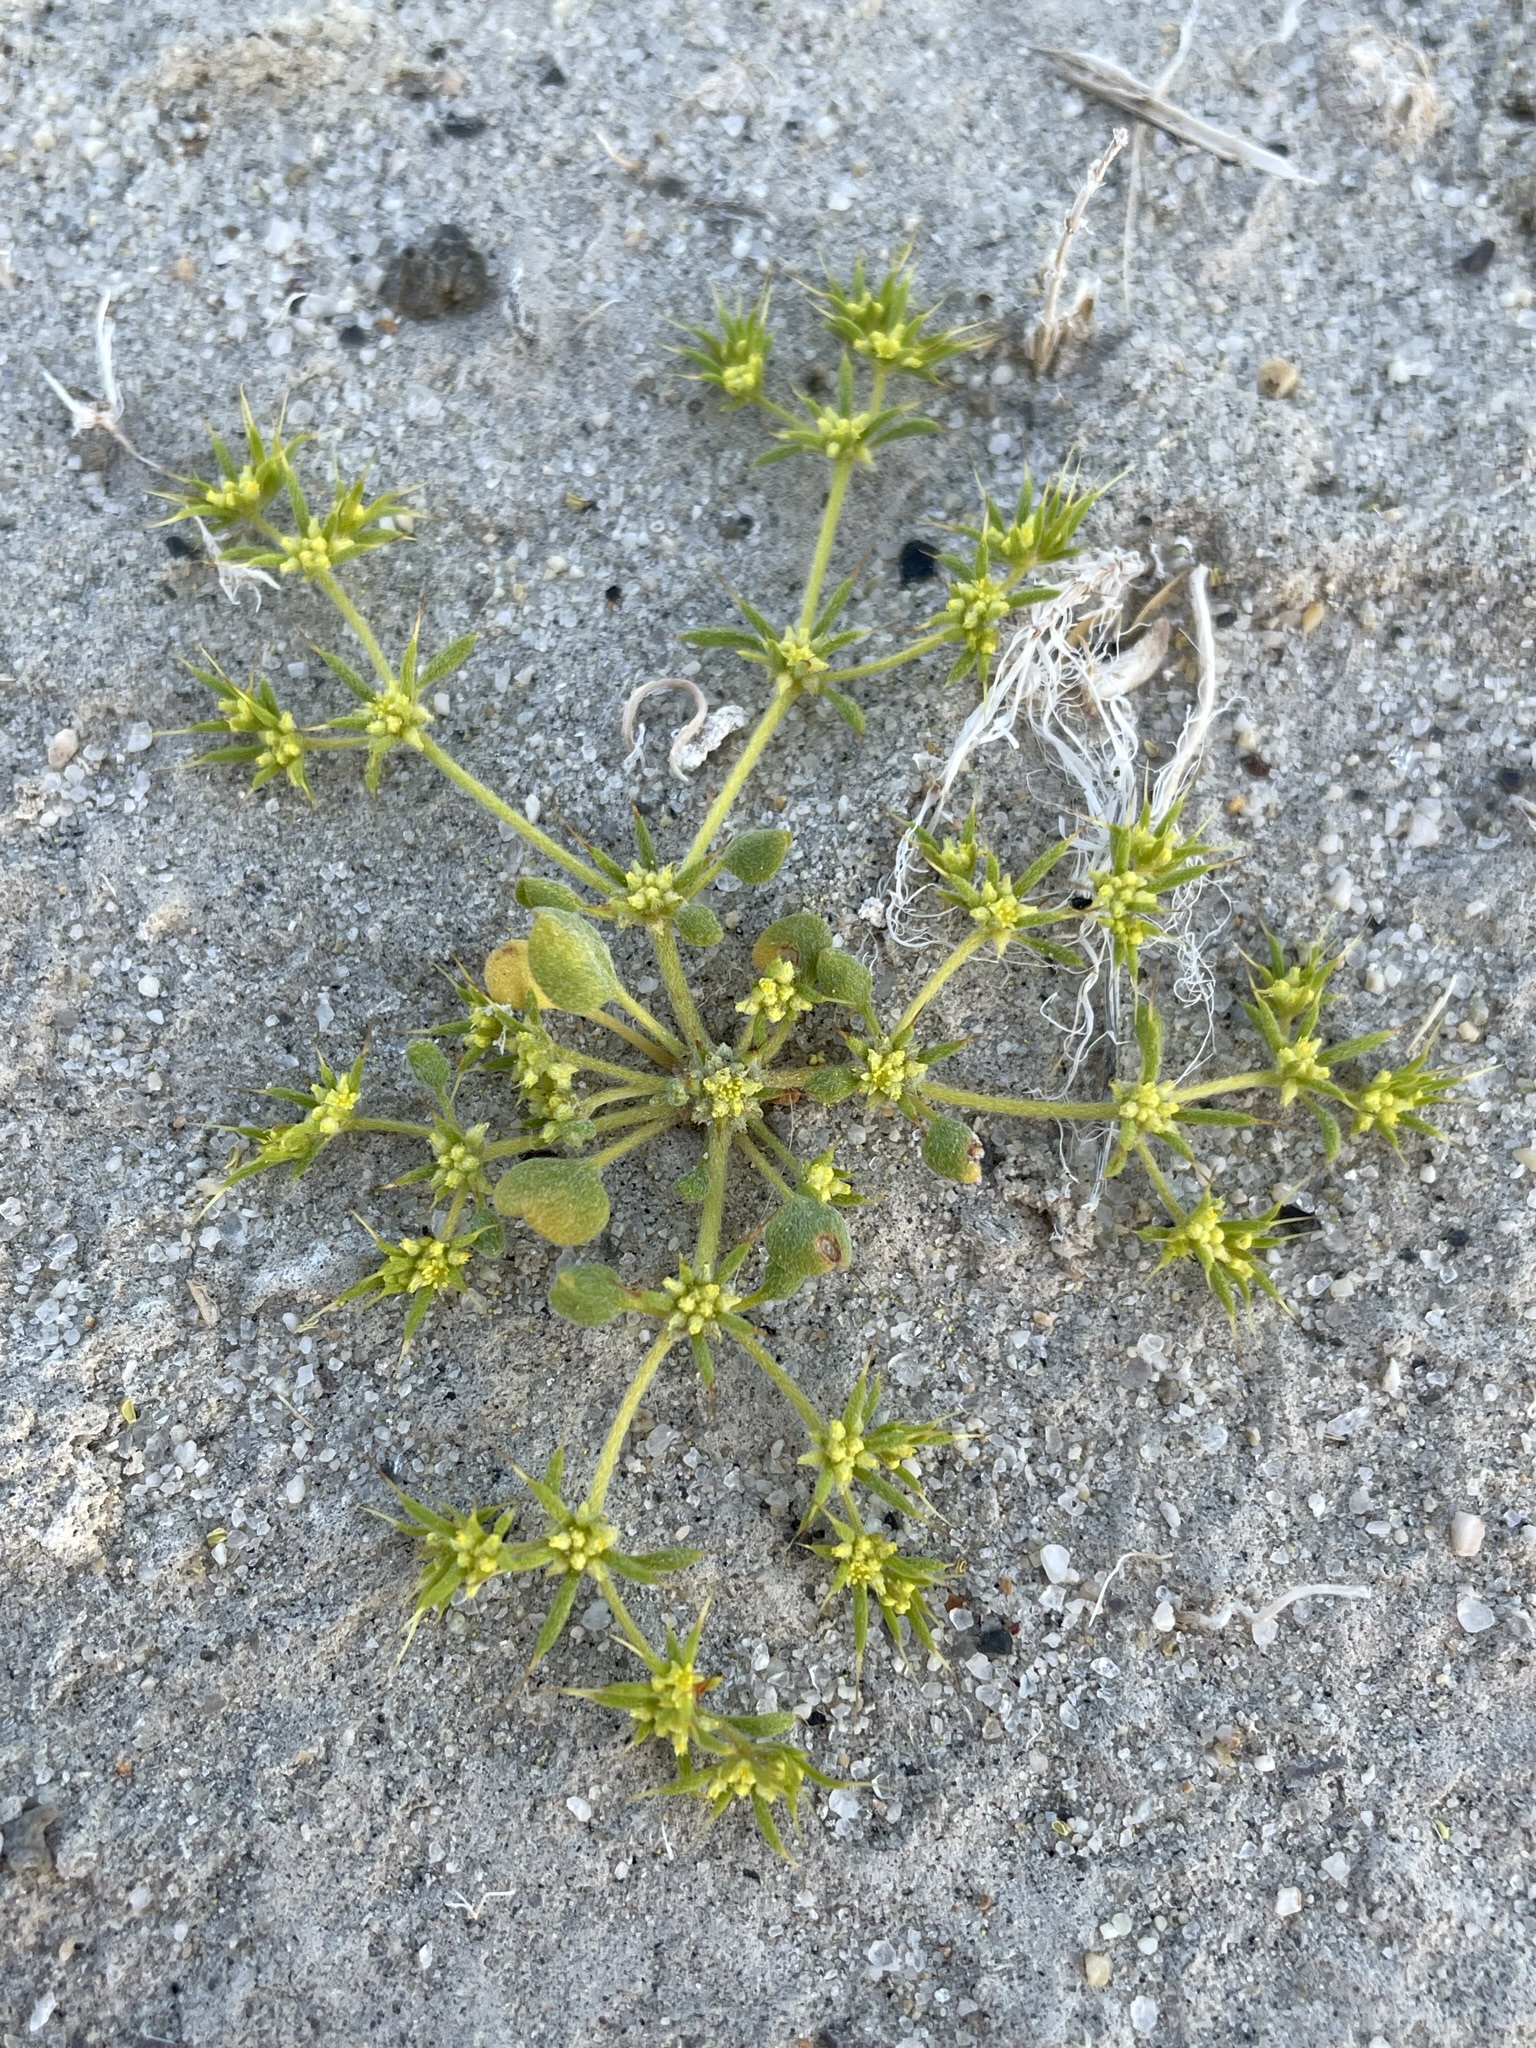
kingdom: Plantae
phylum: Tracheophyta
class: Magnoliopsida
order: Caryophyllales
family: Polygonaceae
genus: Goodmania
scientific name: Goodmania luteola
